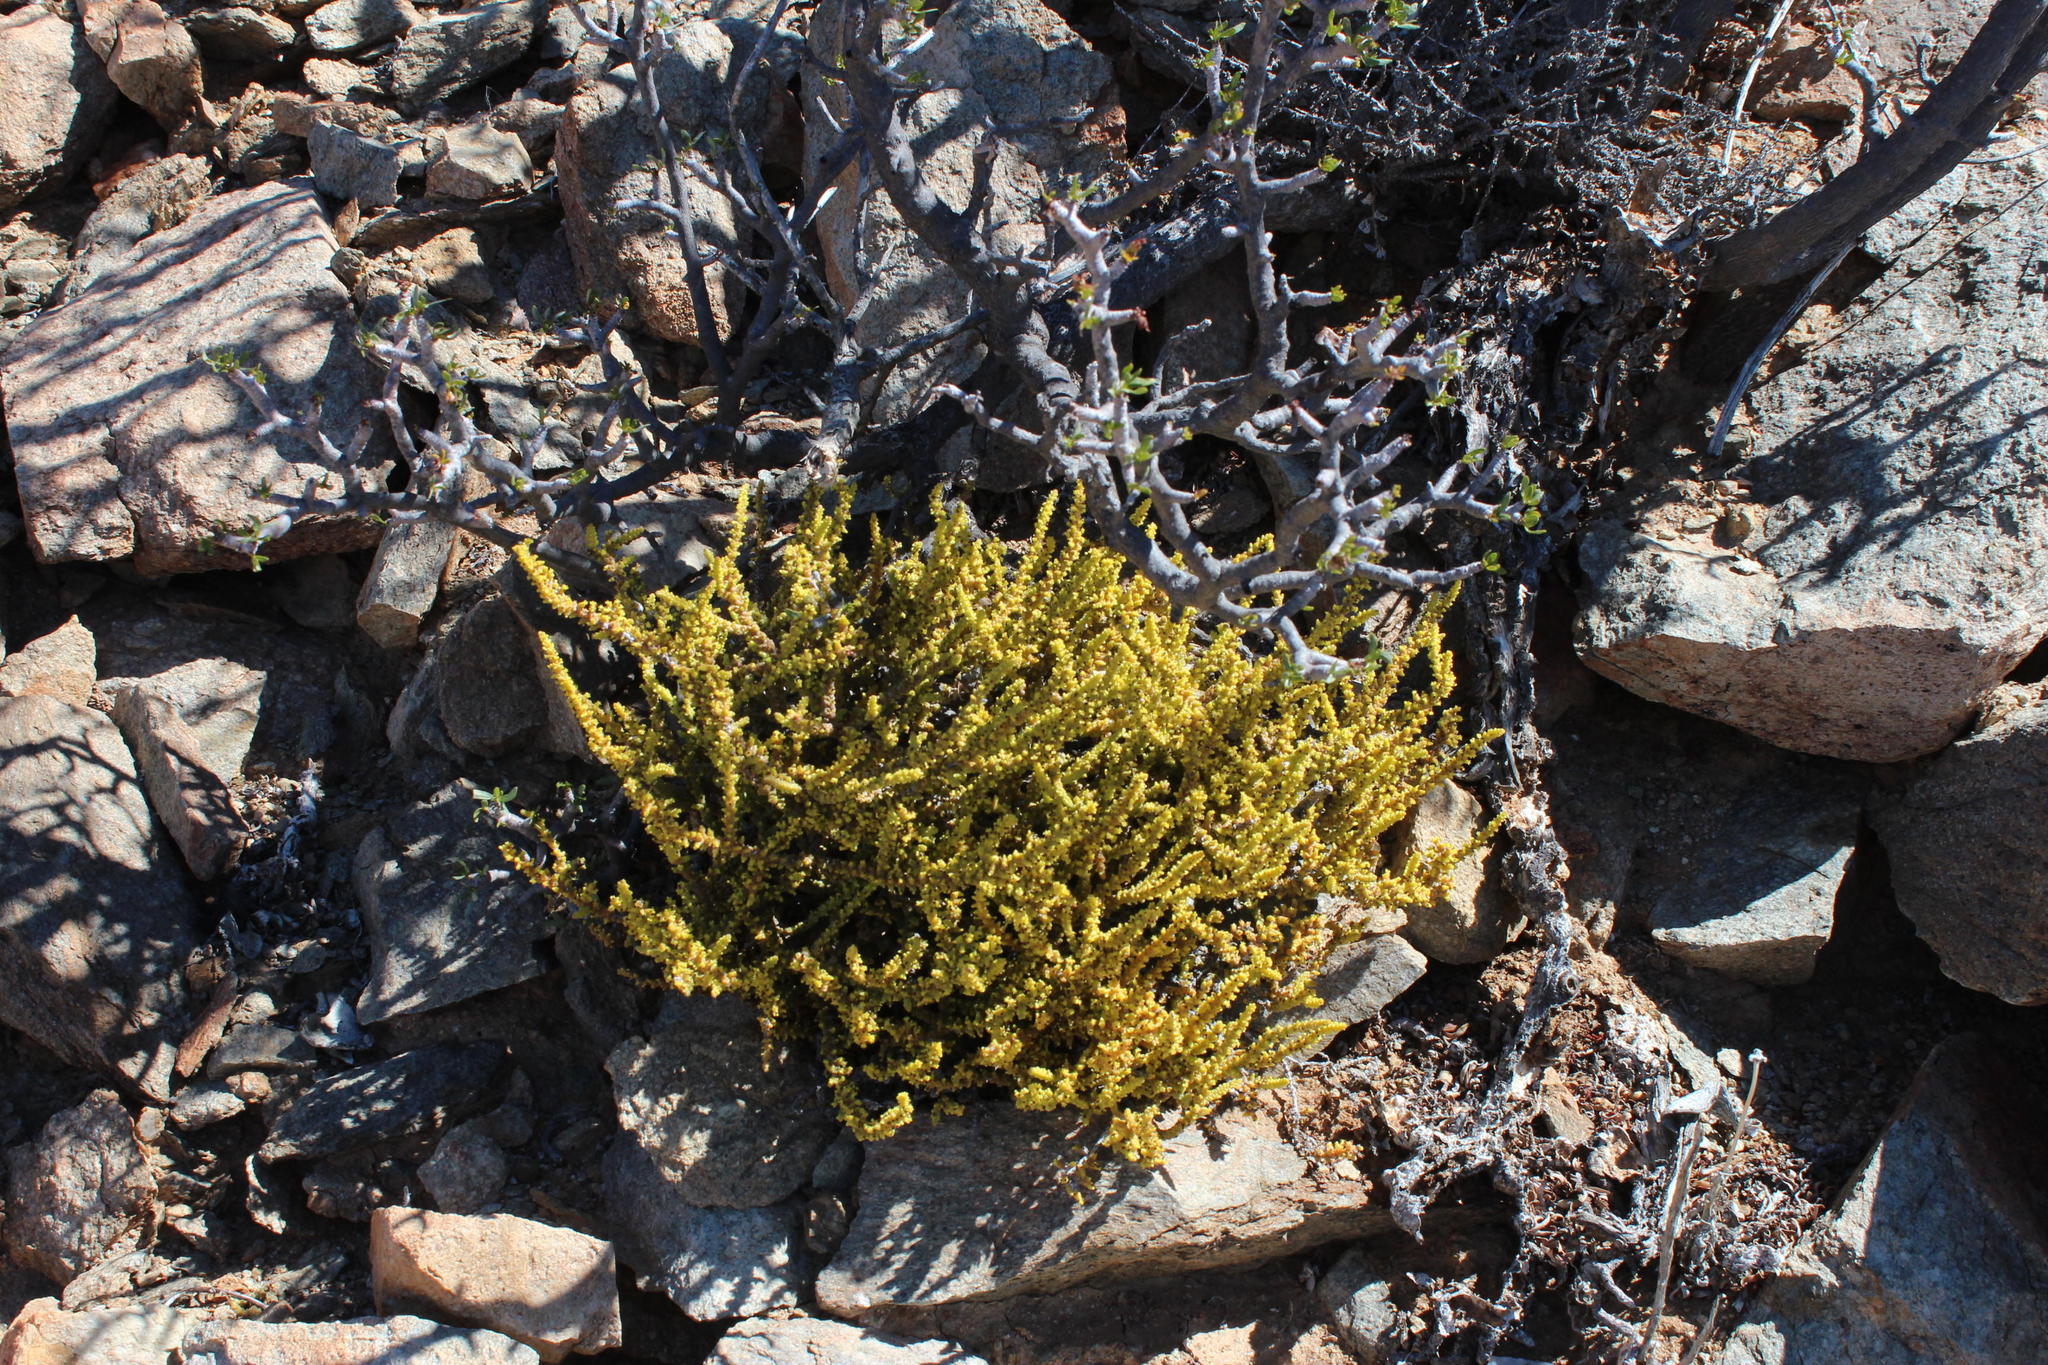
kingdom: Plantae
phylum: Tracheophyta
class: Magnoliopsida
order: Saxifragales
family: Crassulaceae
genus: Crassula
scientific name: Crassula muscosa
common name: Toy-cypress
